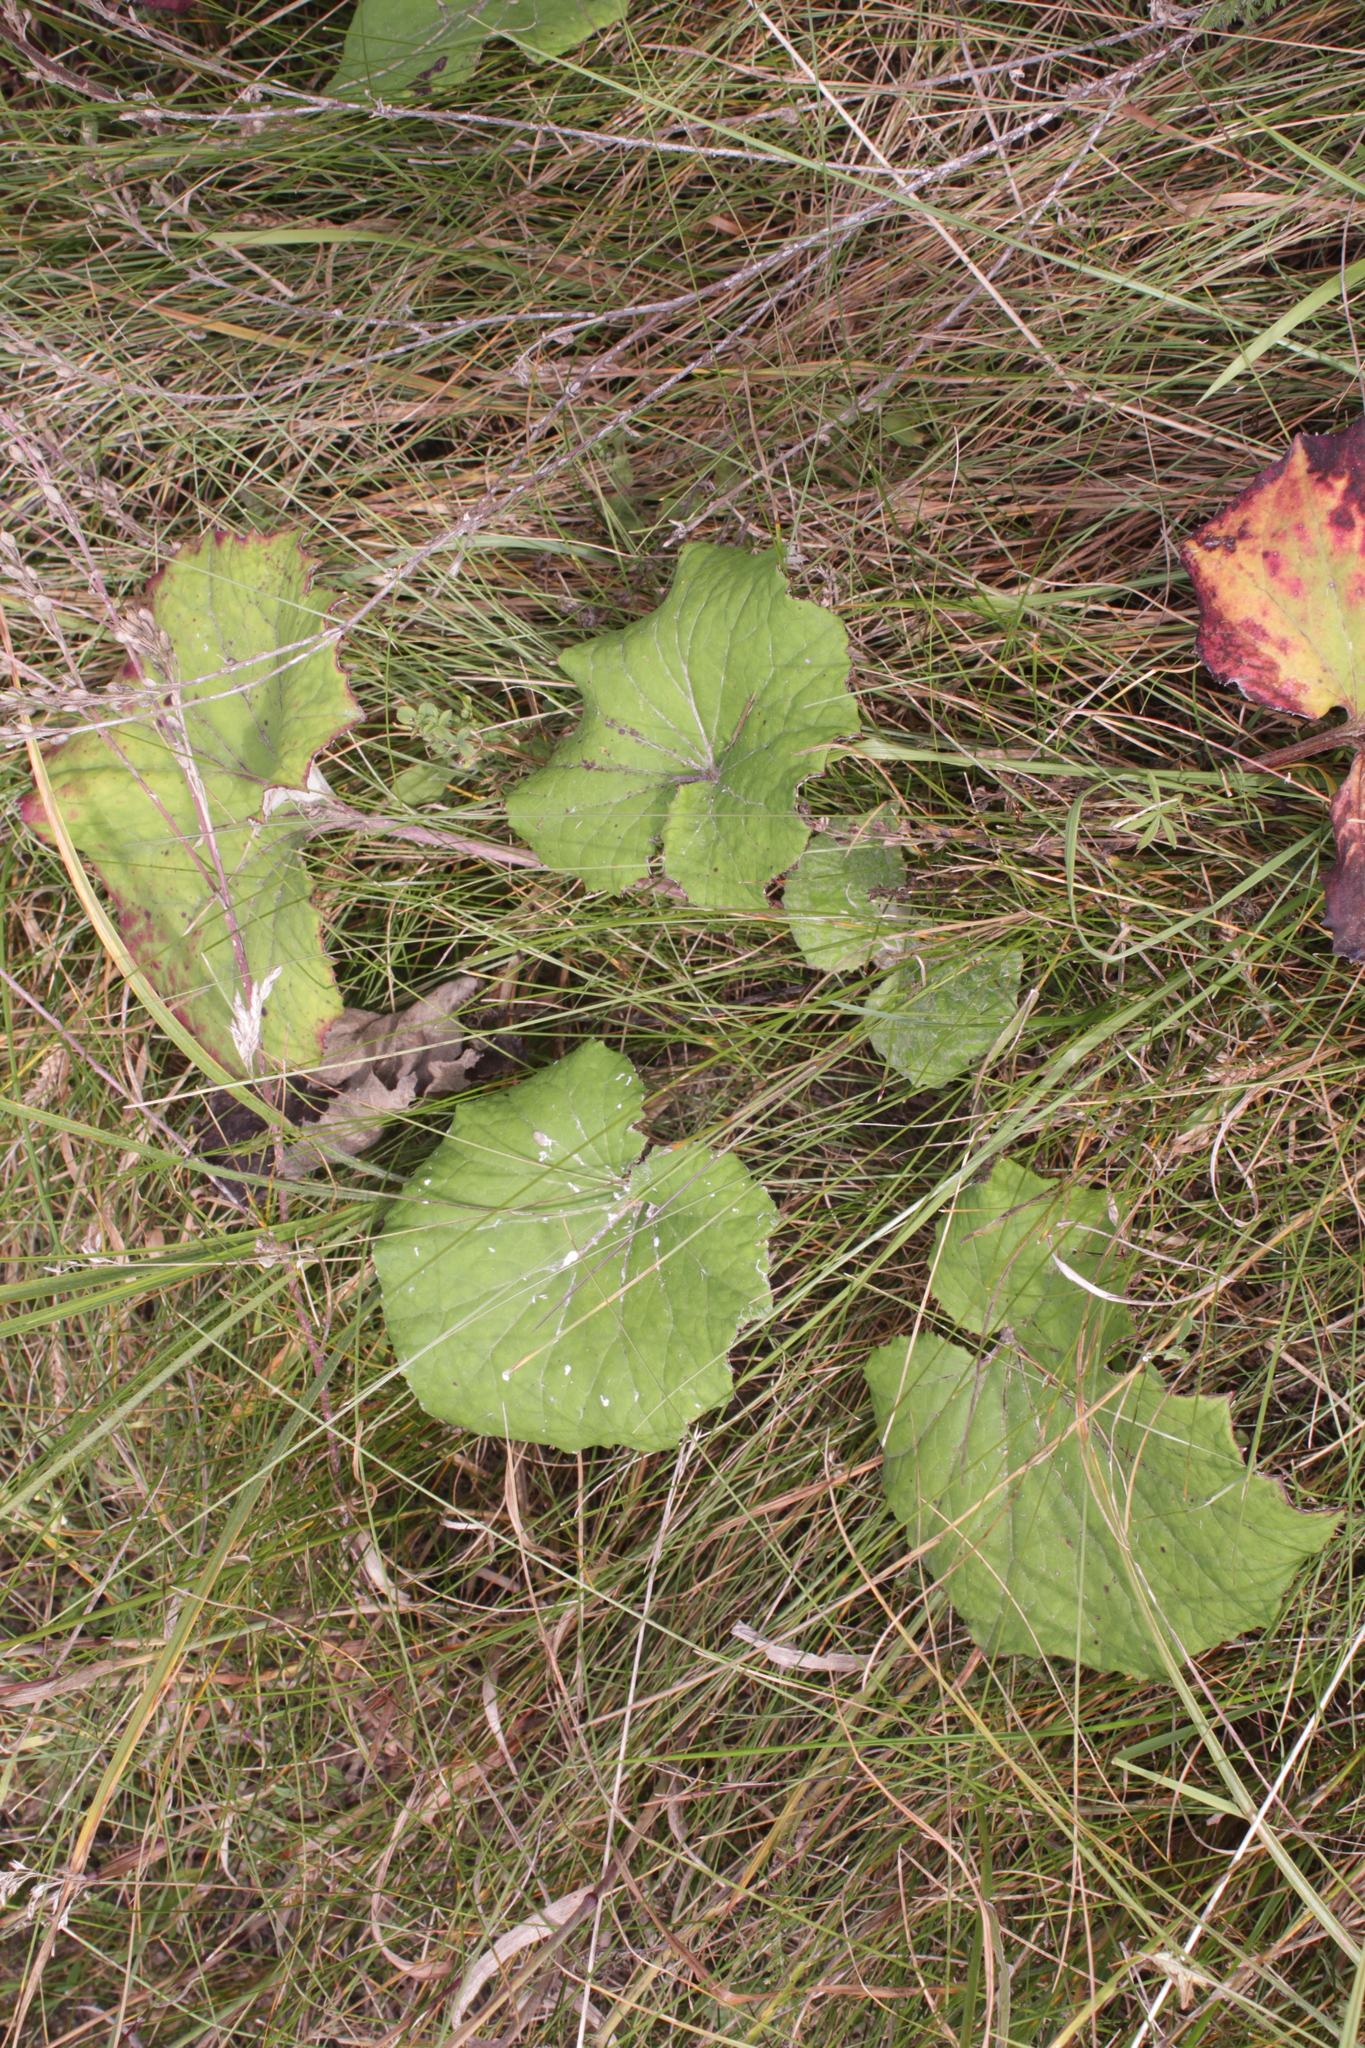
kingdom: Plantae
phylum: Tracheophyta
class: Magnoliopsida
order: Asterales
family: Asteraceae
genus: Tussilago
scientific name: Tussilago farfara
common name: Coltsfoot
